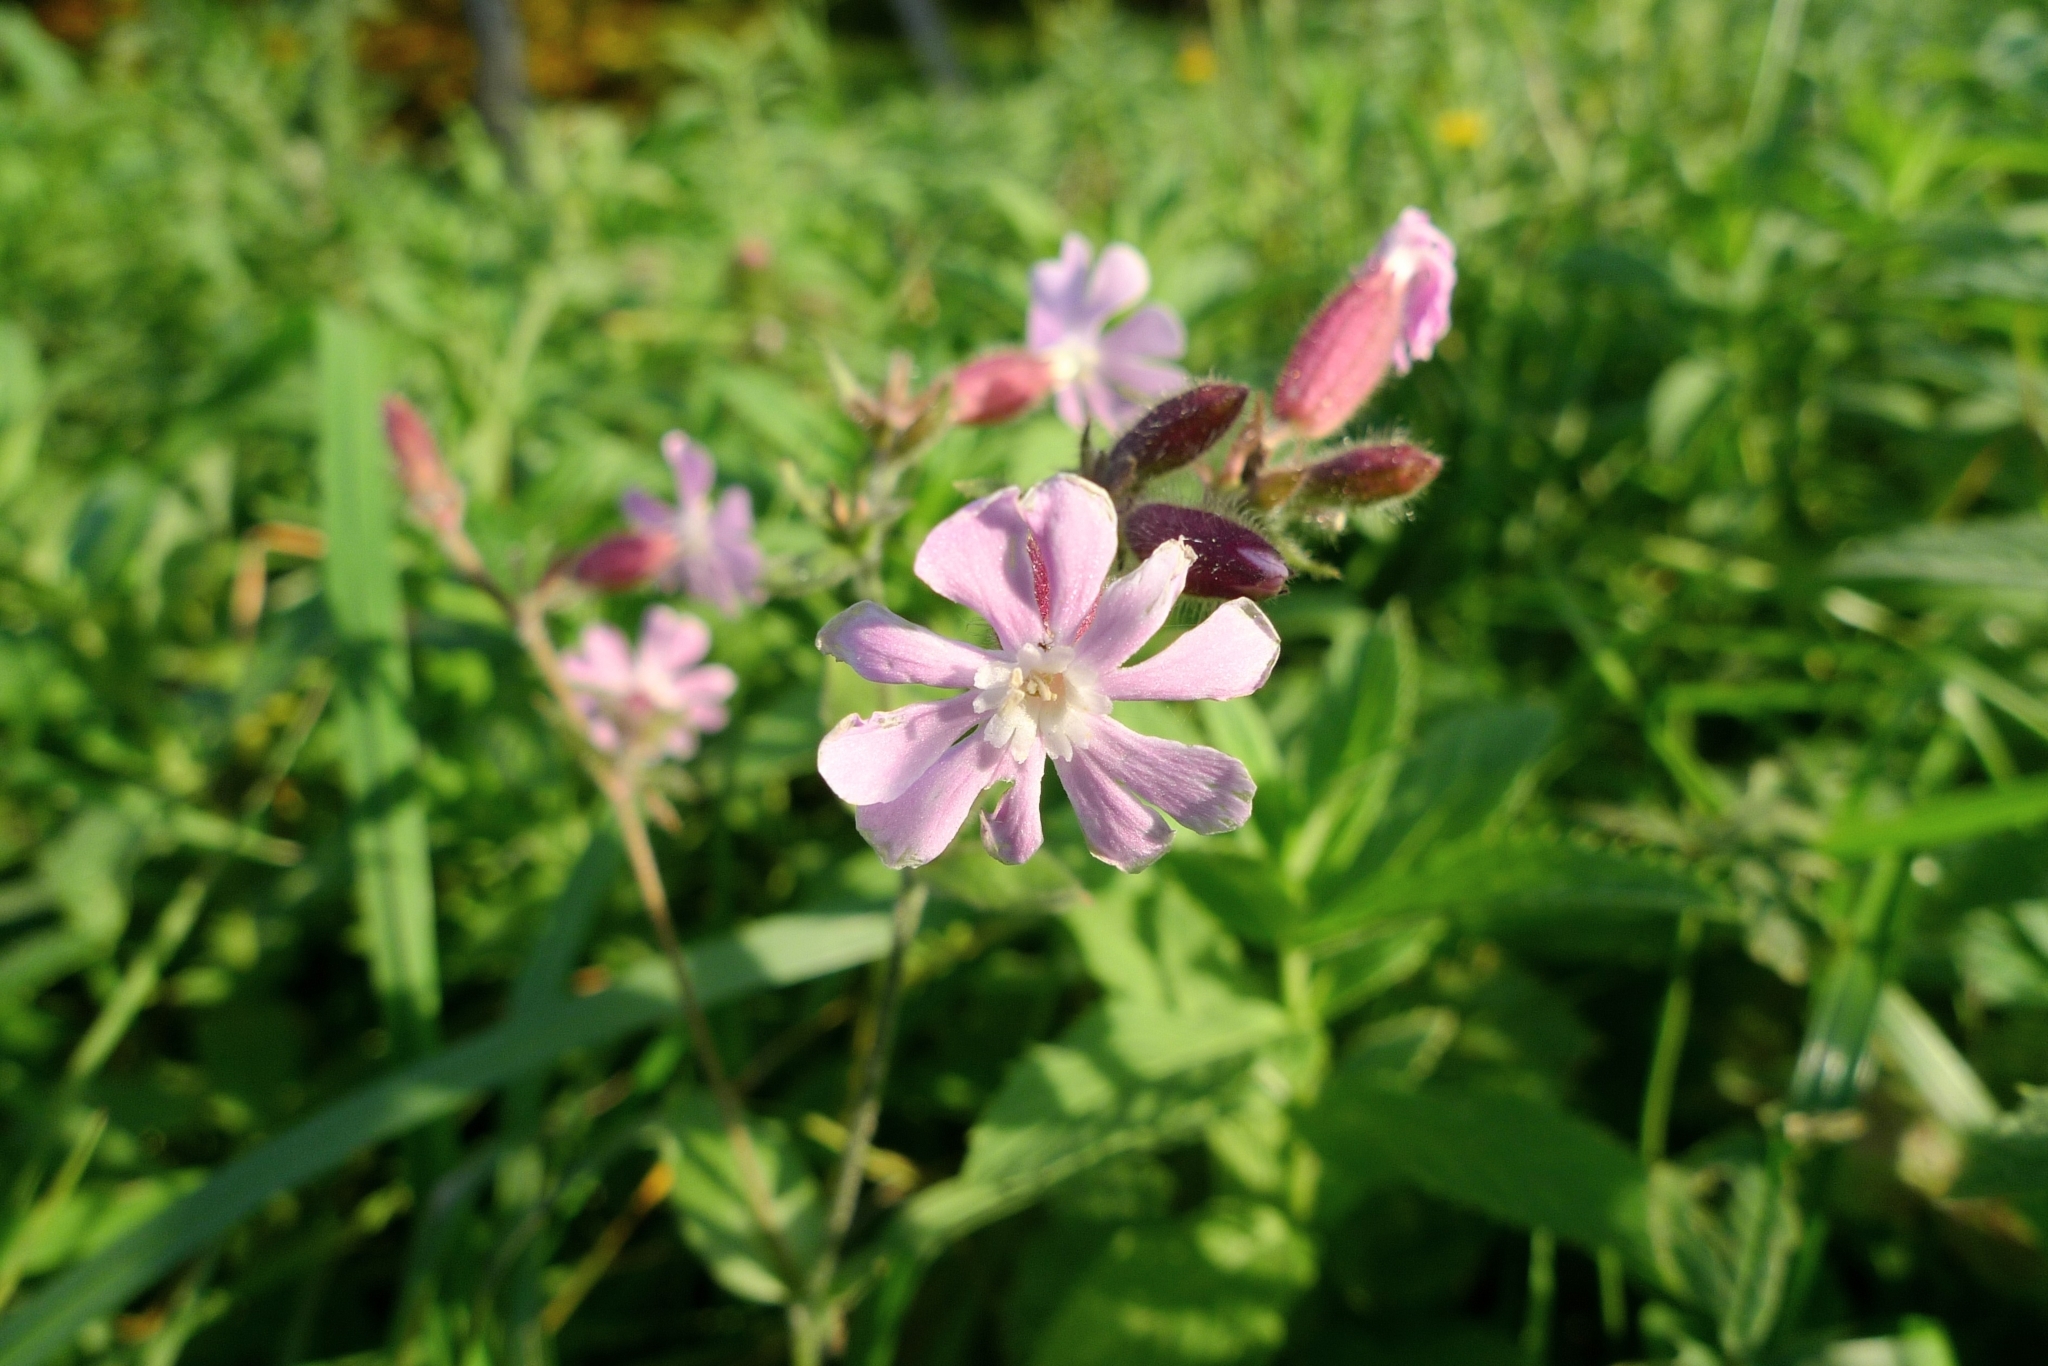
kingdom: Plantae
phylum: Tracheophyta
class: Magnoliopsida
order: Caryophyllales
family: Caryophyllaceae
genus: Saponaria
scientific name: Saponaria officinalis
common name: Soapwort
